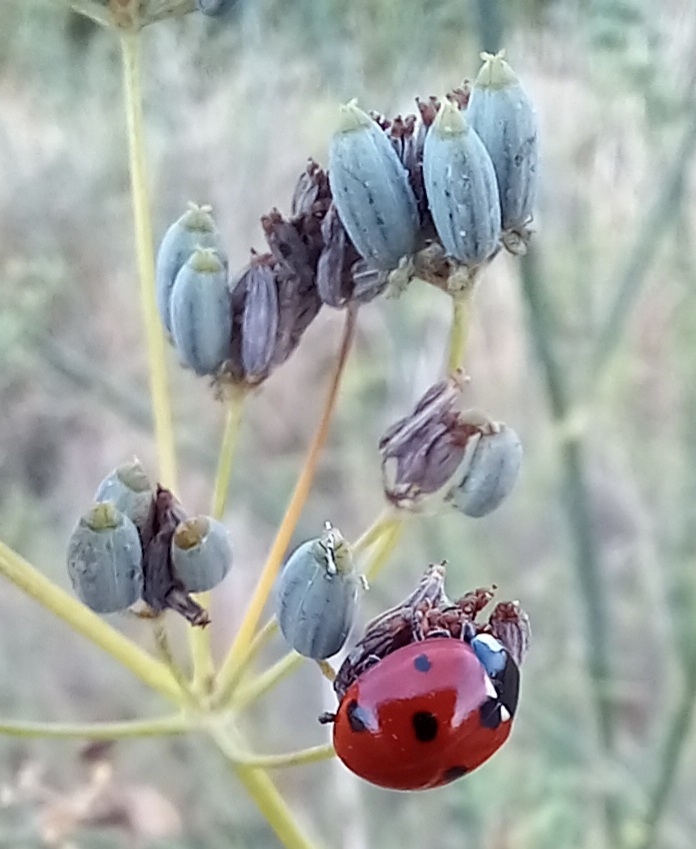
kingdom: Animalia
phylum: Arthropoda
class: Insecta
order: Coleoptera
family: Coccinellidae
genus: Coccinella
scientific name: Coccinella septempunctata
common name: Sevenspotted lady beetle
